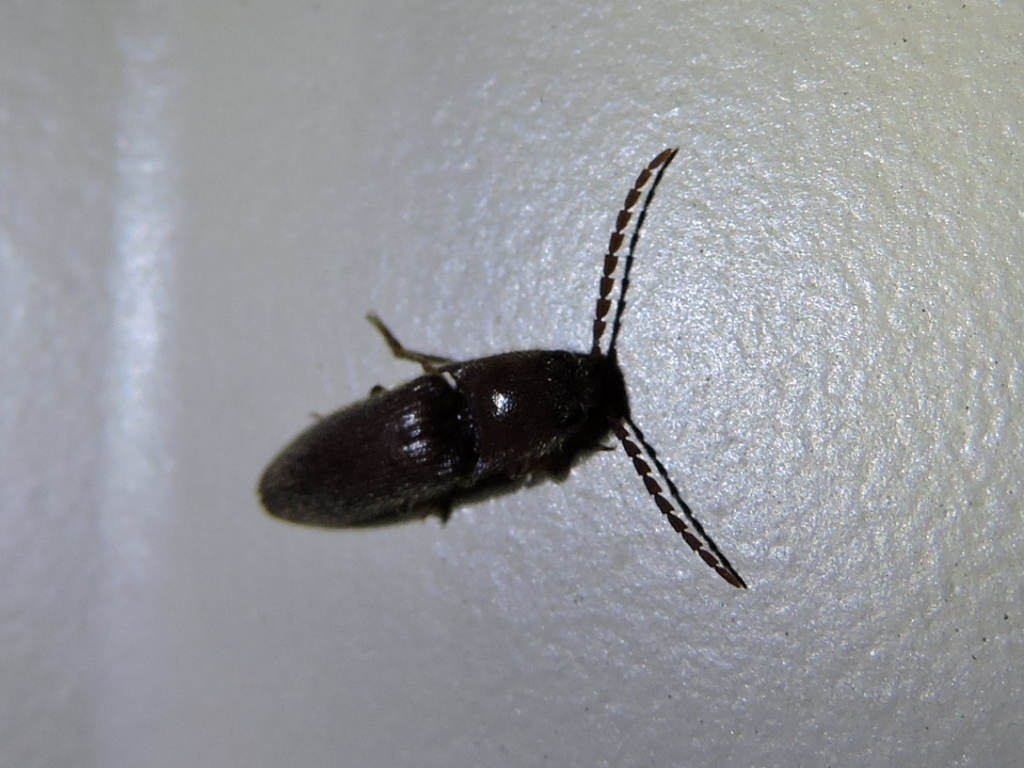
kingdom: Animalia
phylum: Arthropoda
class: Insecta
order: Coleoptera
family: Elateridae
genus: Diplostethus
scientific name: Diplostethus
